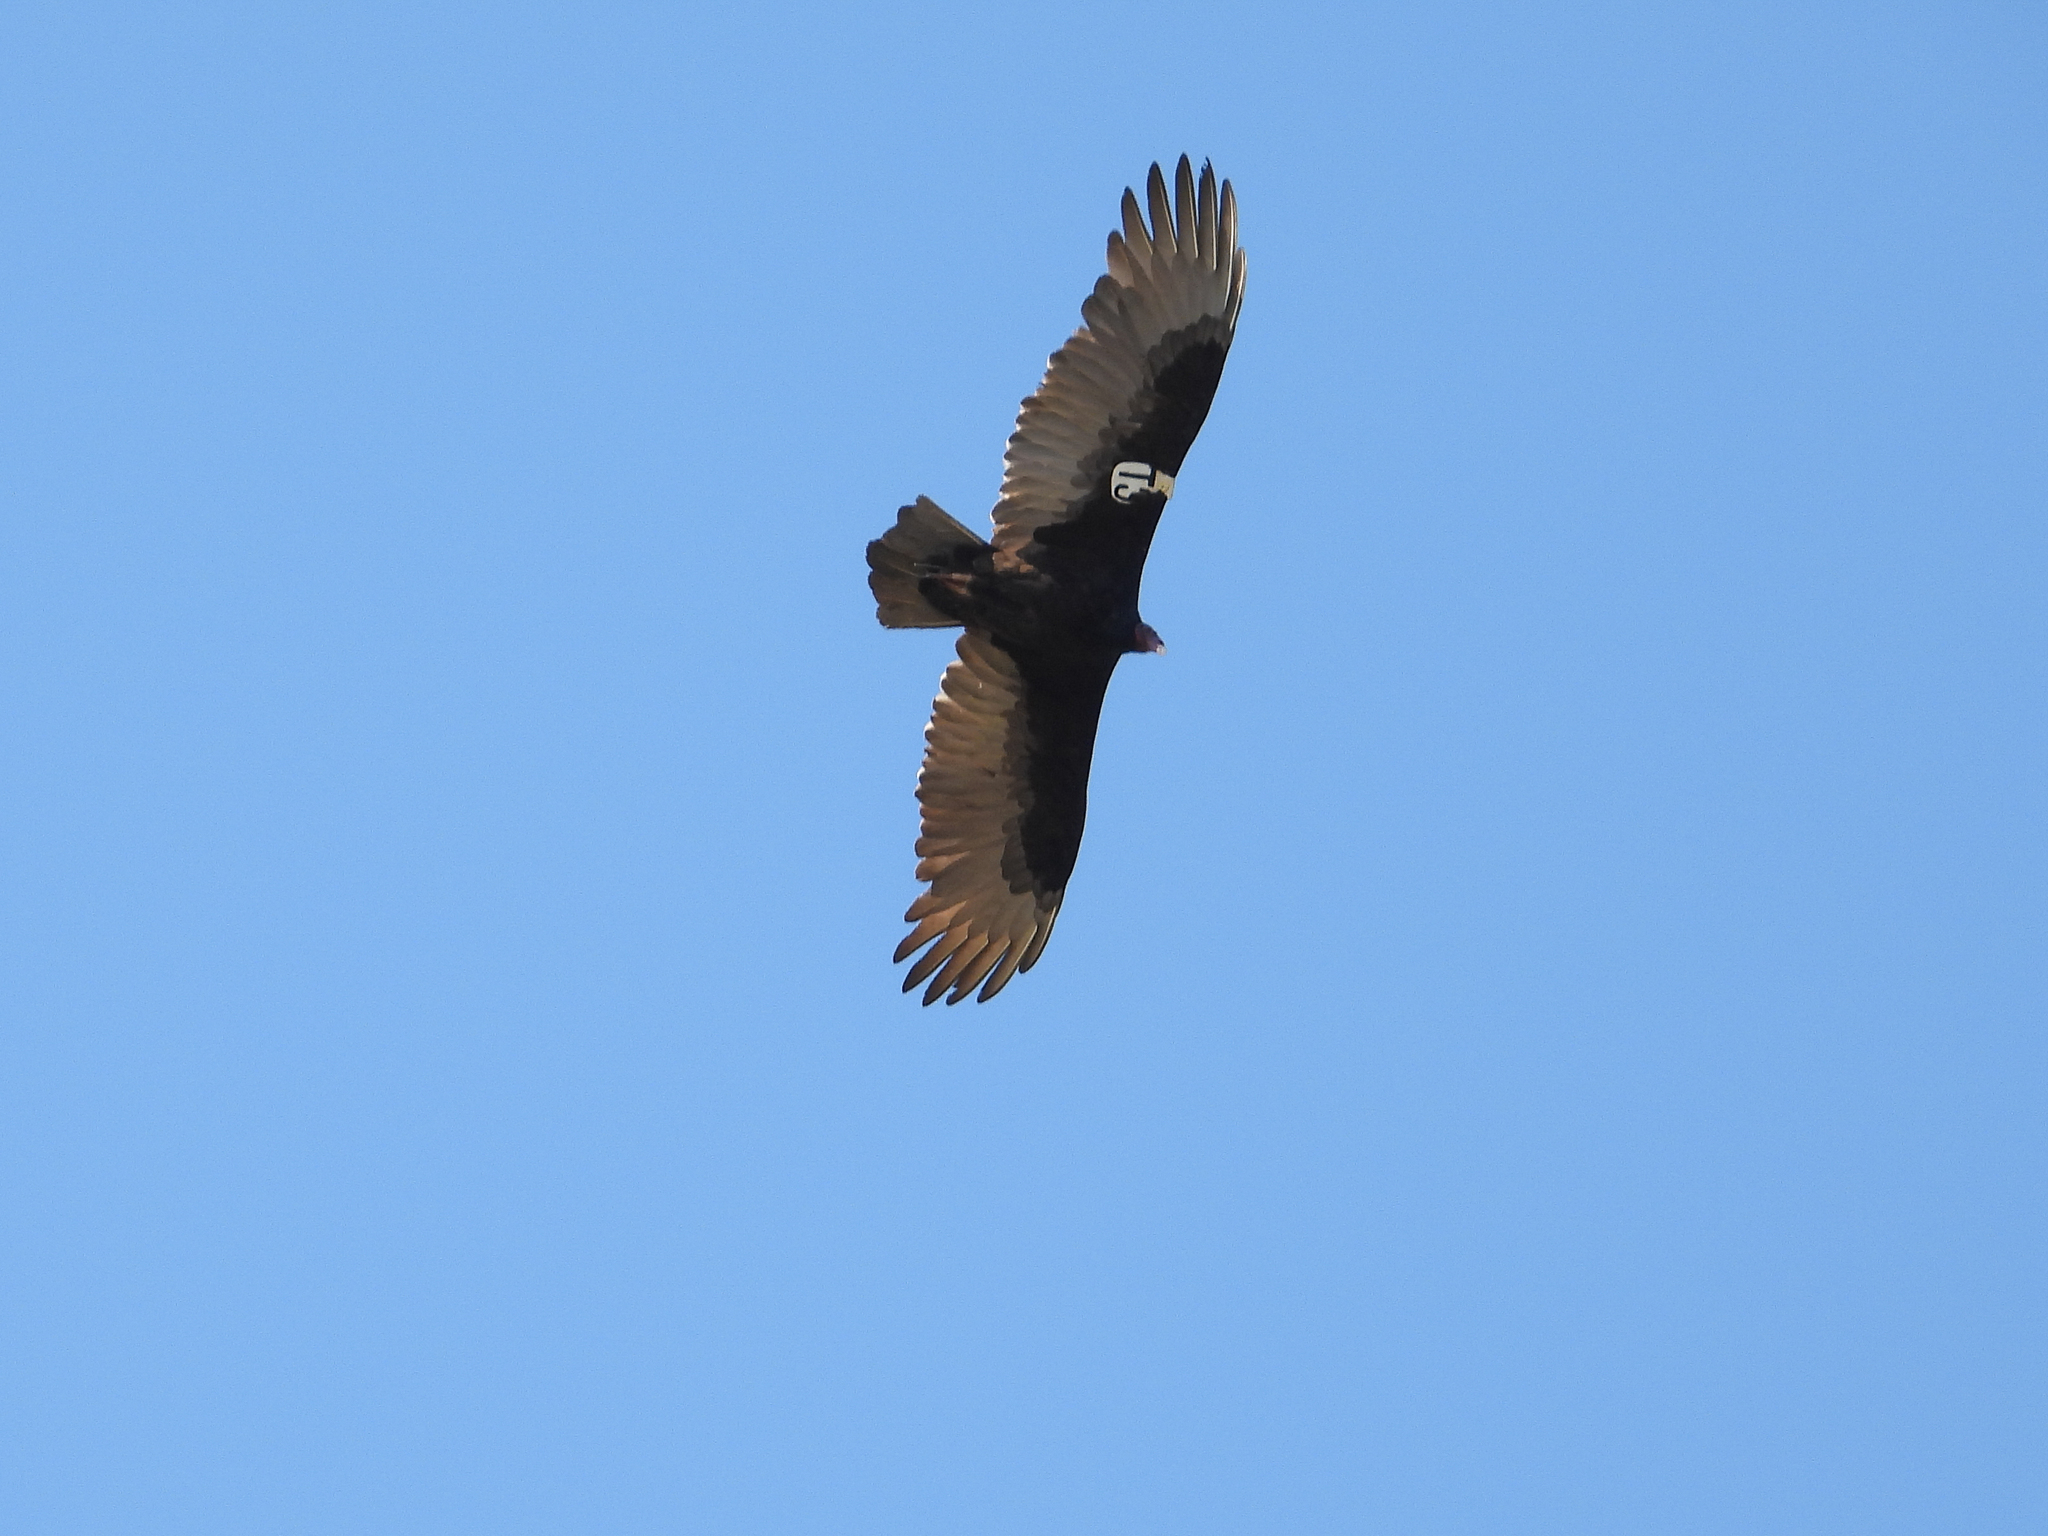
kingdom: Animalia
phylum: Chordata
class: Aves
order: Accipitriformes
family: Cathartidae
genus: Cathartes
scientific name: Cathartes aura
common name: Turkey vulture
